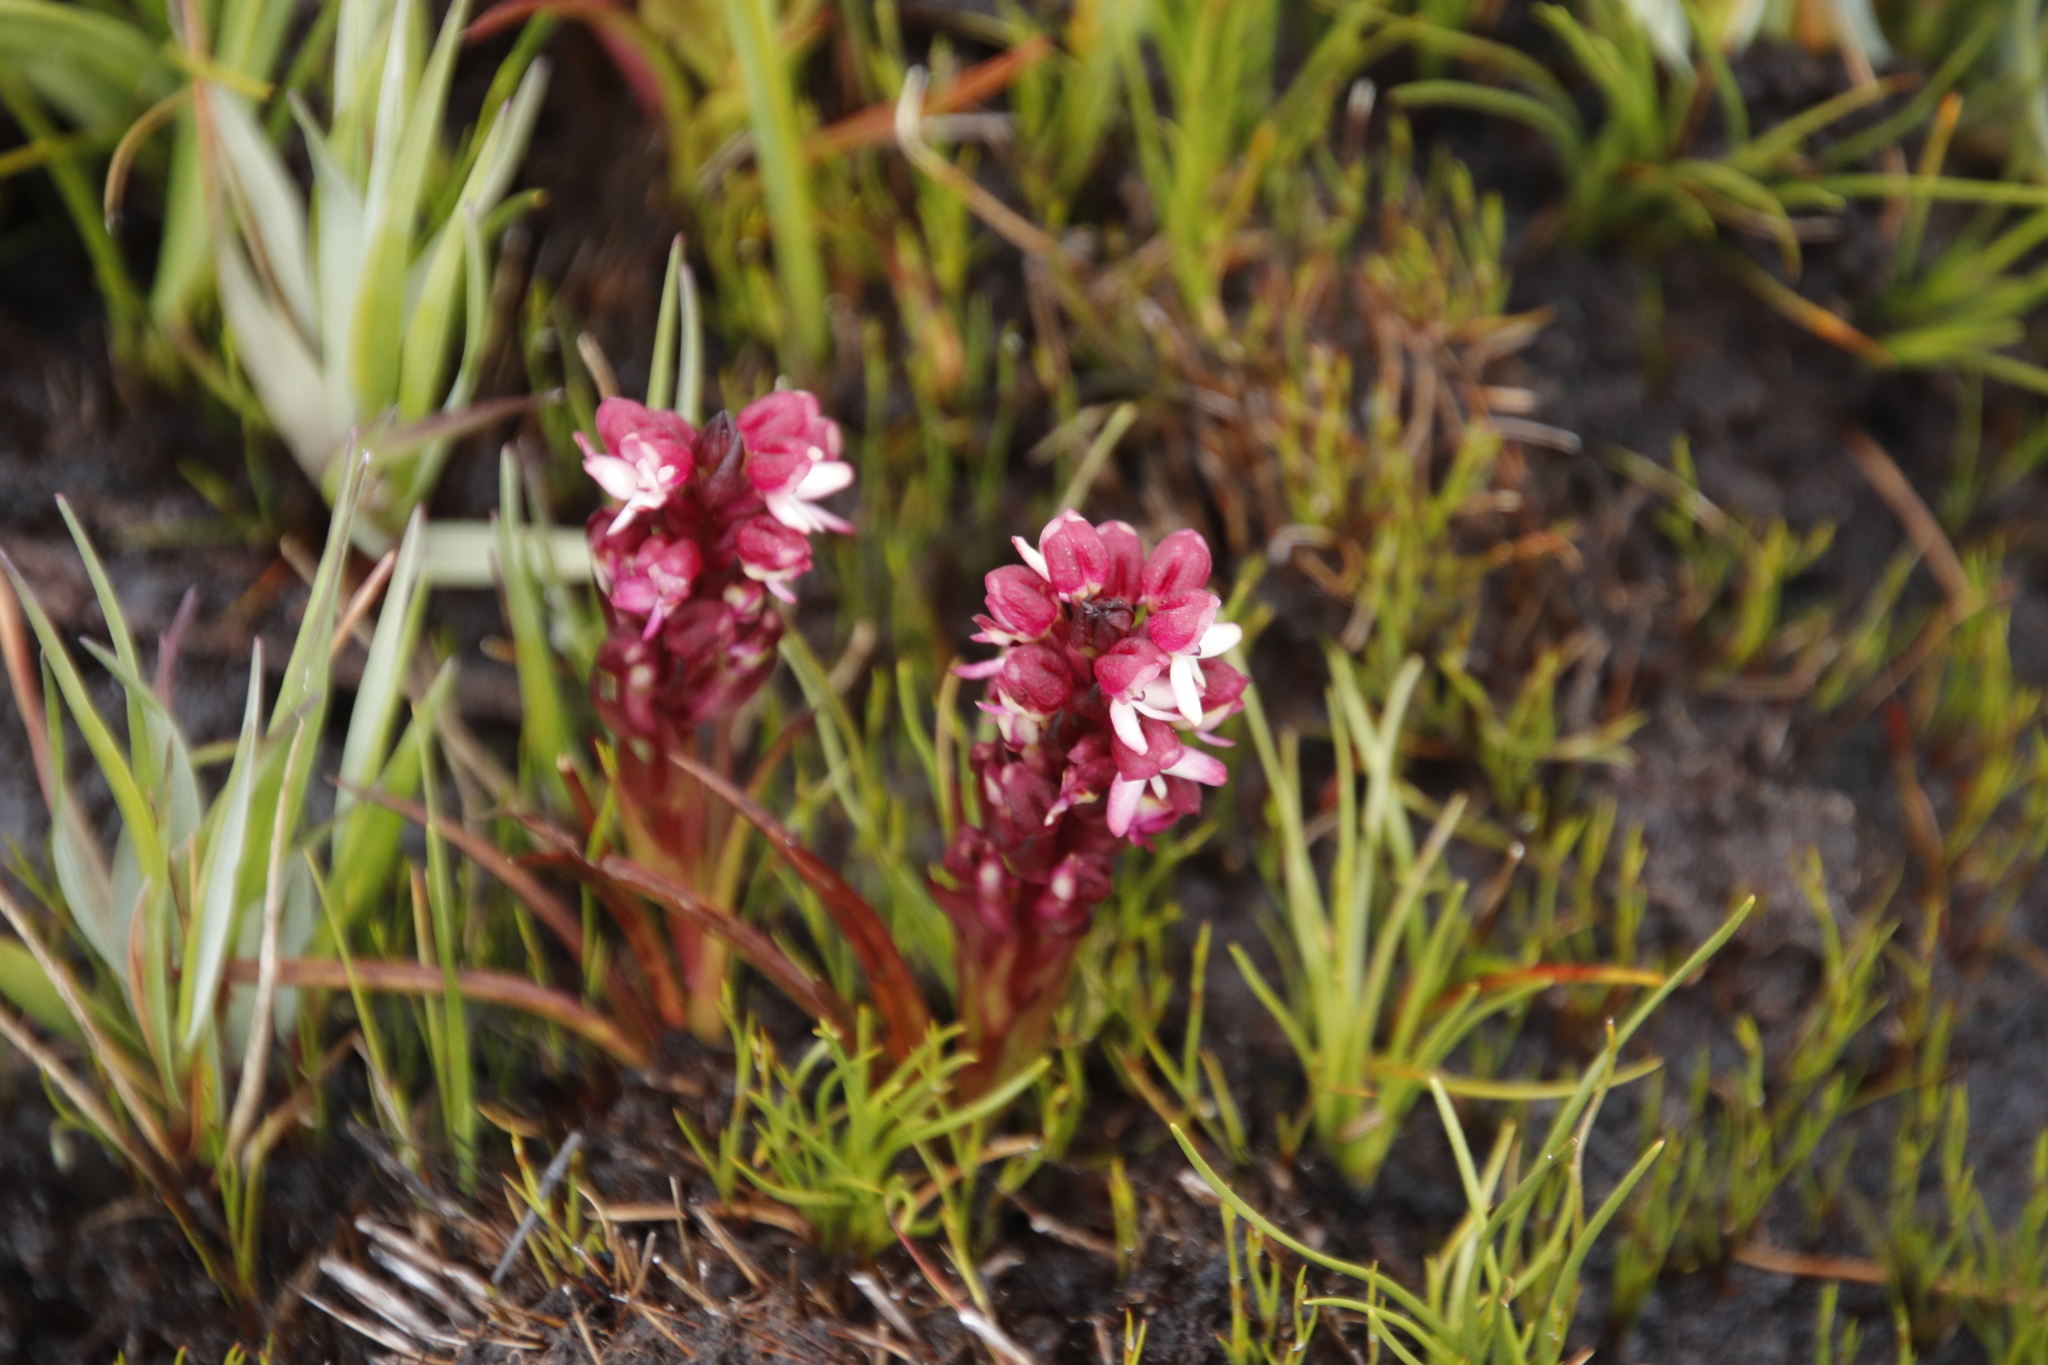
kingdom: Plantae
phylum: Tracheophyta
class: Liliopsida
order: Asparagales
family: Orchidaceae
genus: Disa
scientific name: Disa albomagentea
